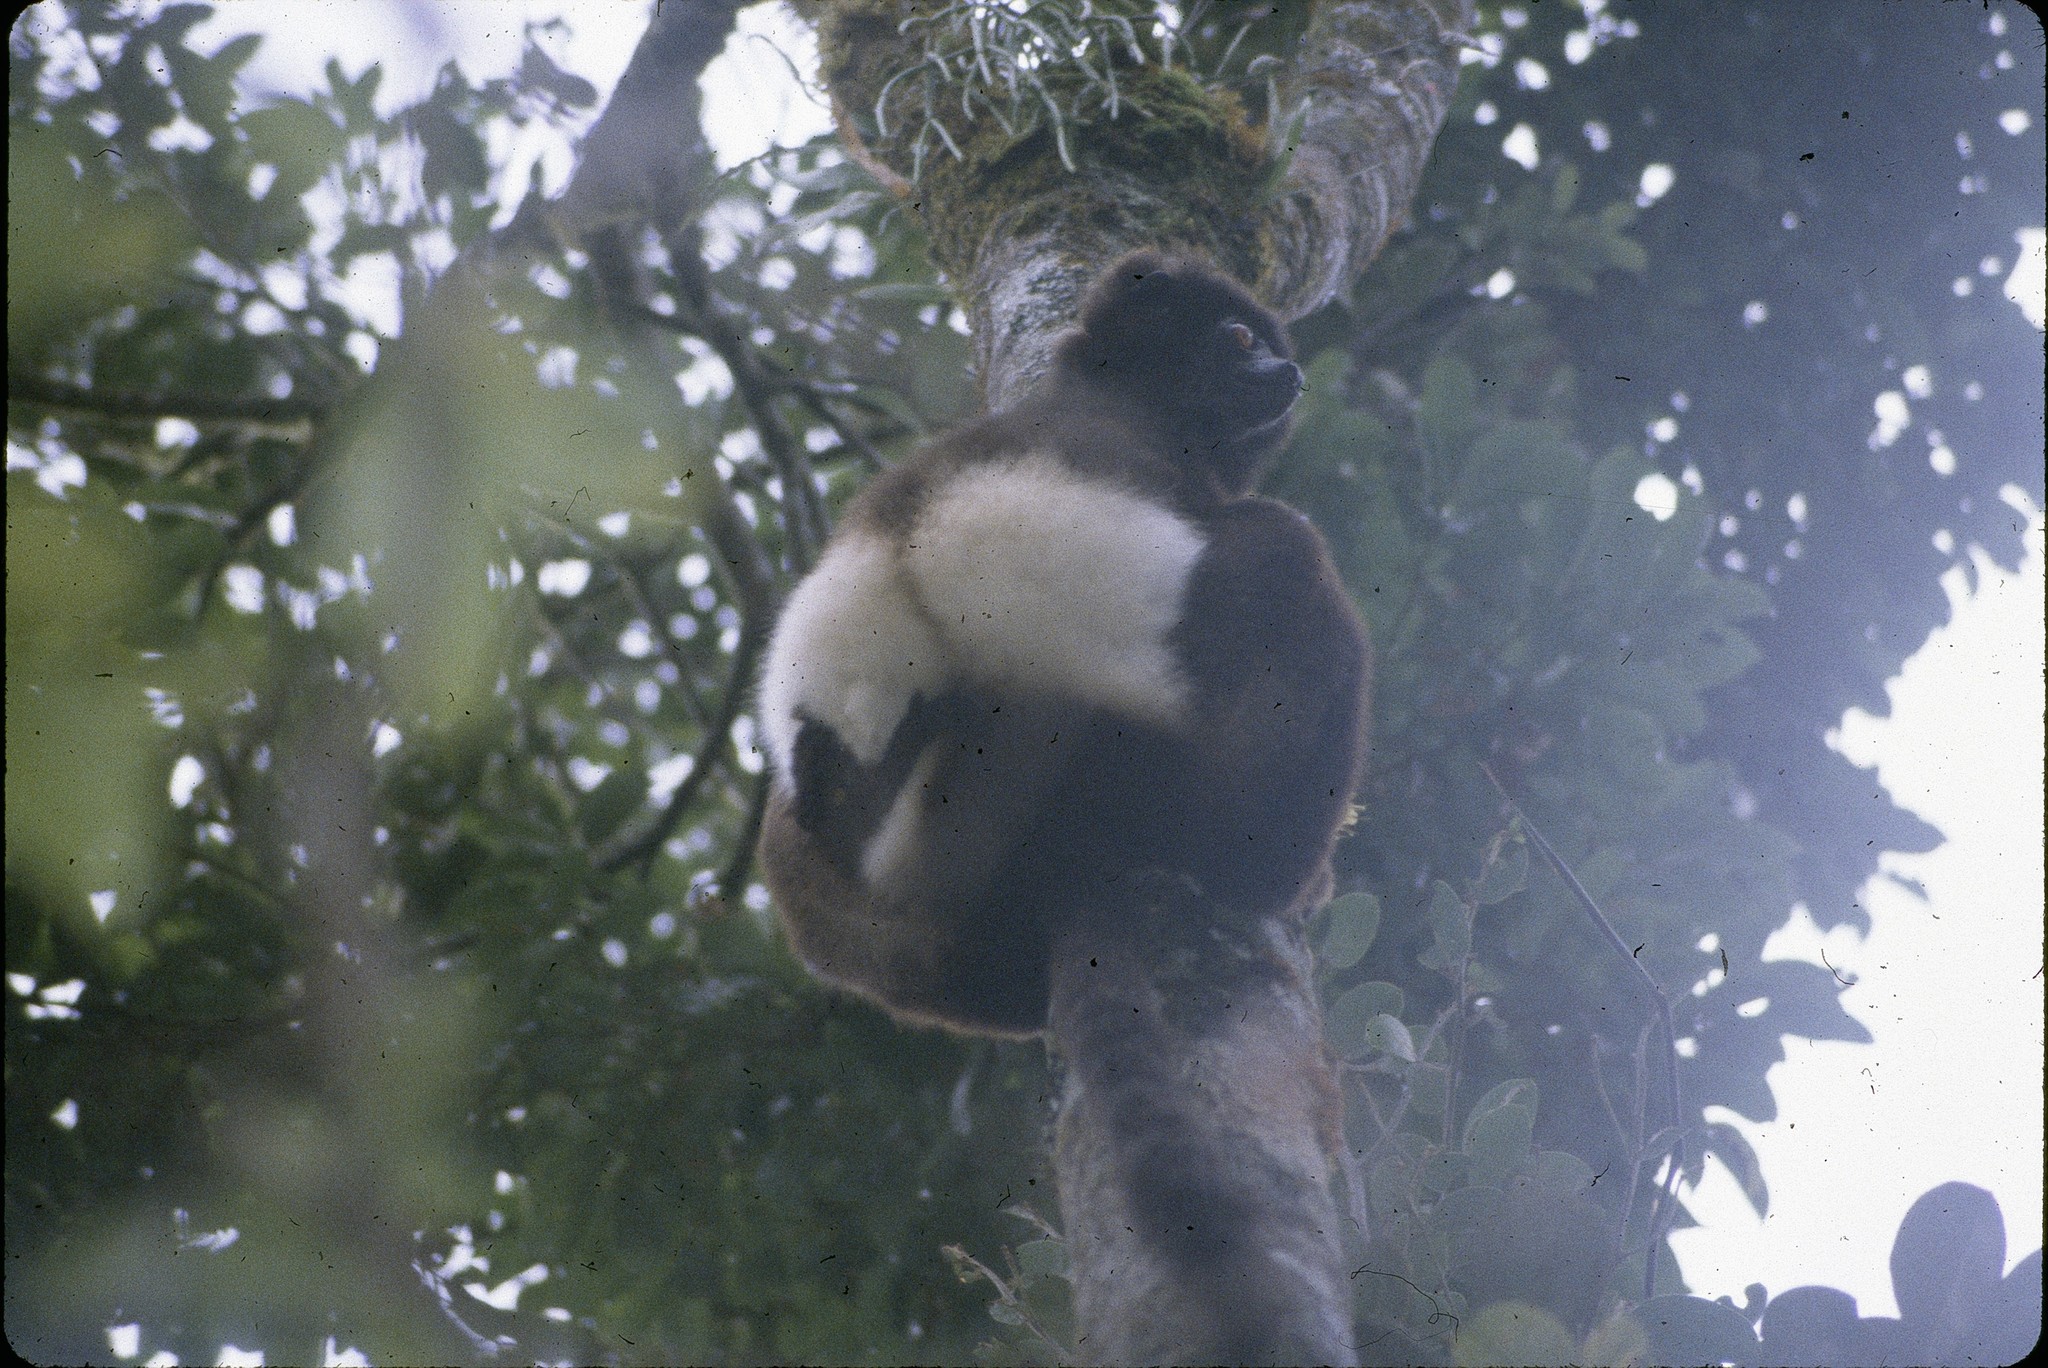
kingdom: Animalia
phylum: Chordata
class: Mammalia
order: Primates
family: Indriidae
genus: Propithecus
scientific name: Propithecus edwardsi
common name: Milne-edwards’s simpona
